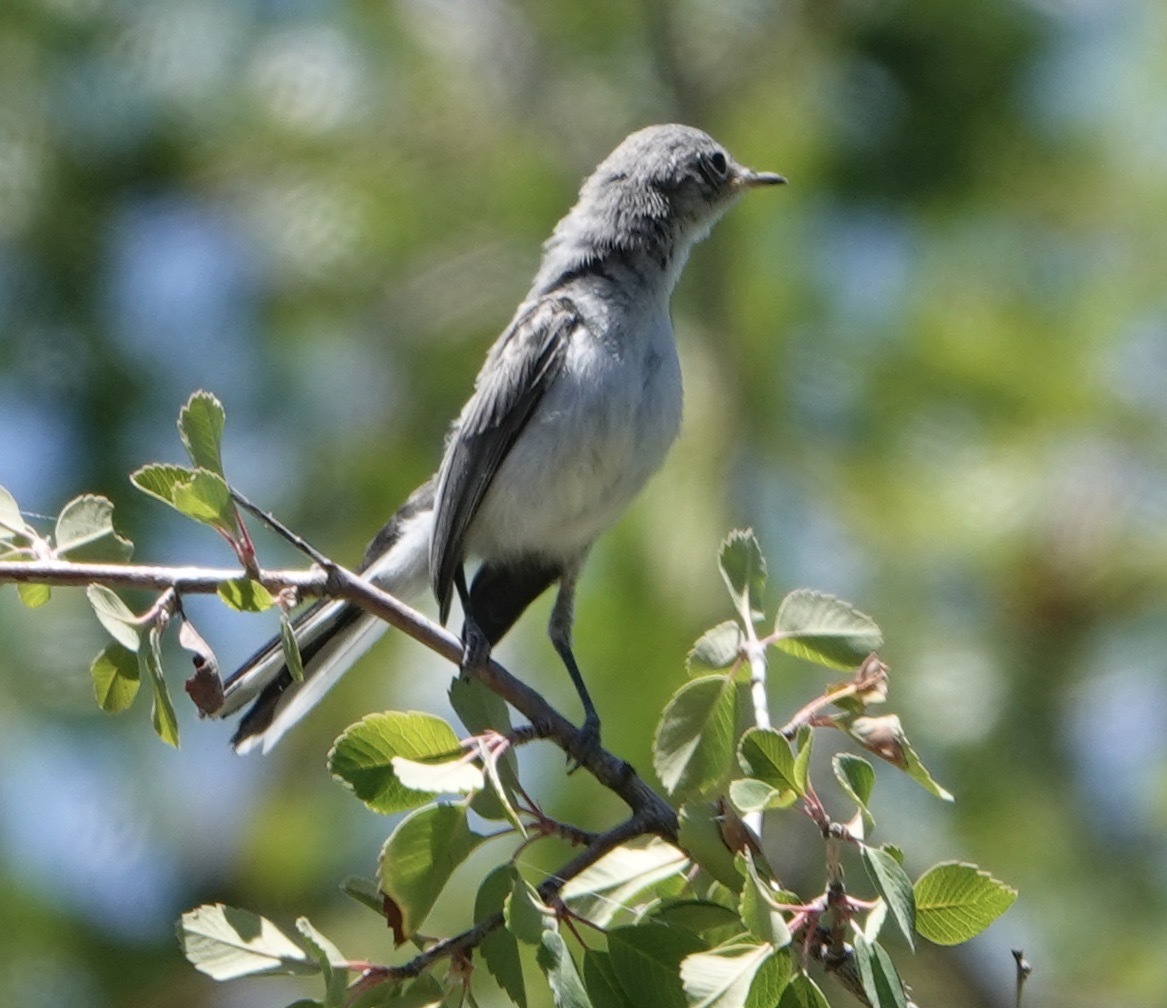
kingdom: Animalia
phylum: Chordata
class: Aves
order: Passeriformes
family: Polioptilidae
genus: Polioptila
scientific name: Polioptila caerulea
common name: Blue-gray gnatcatcher
